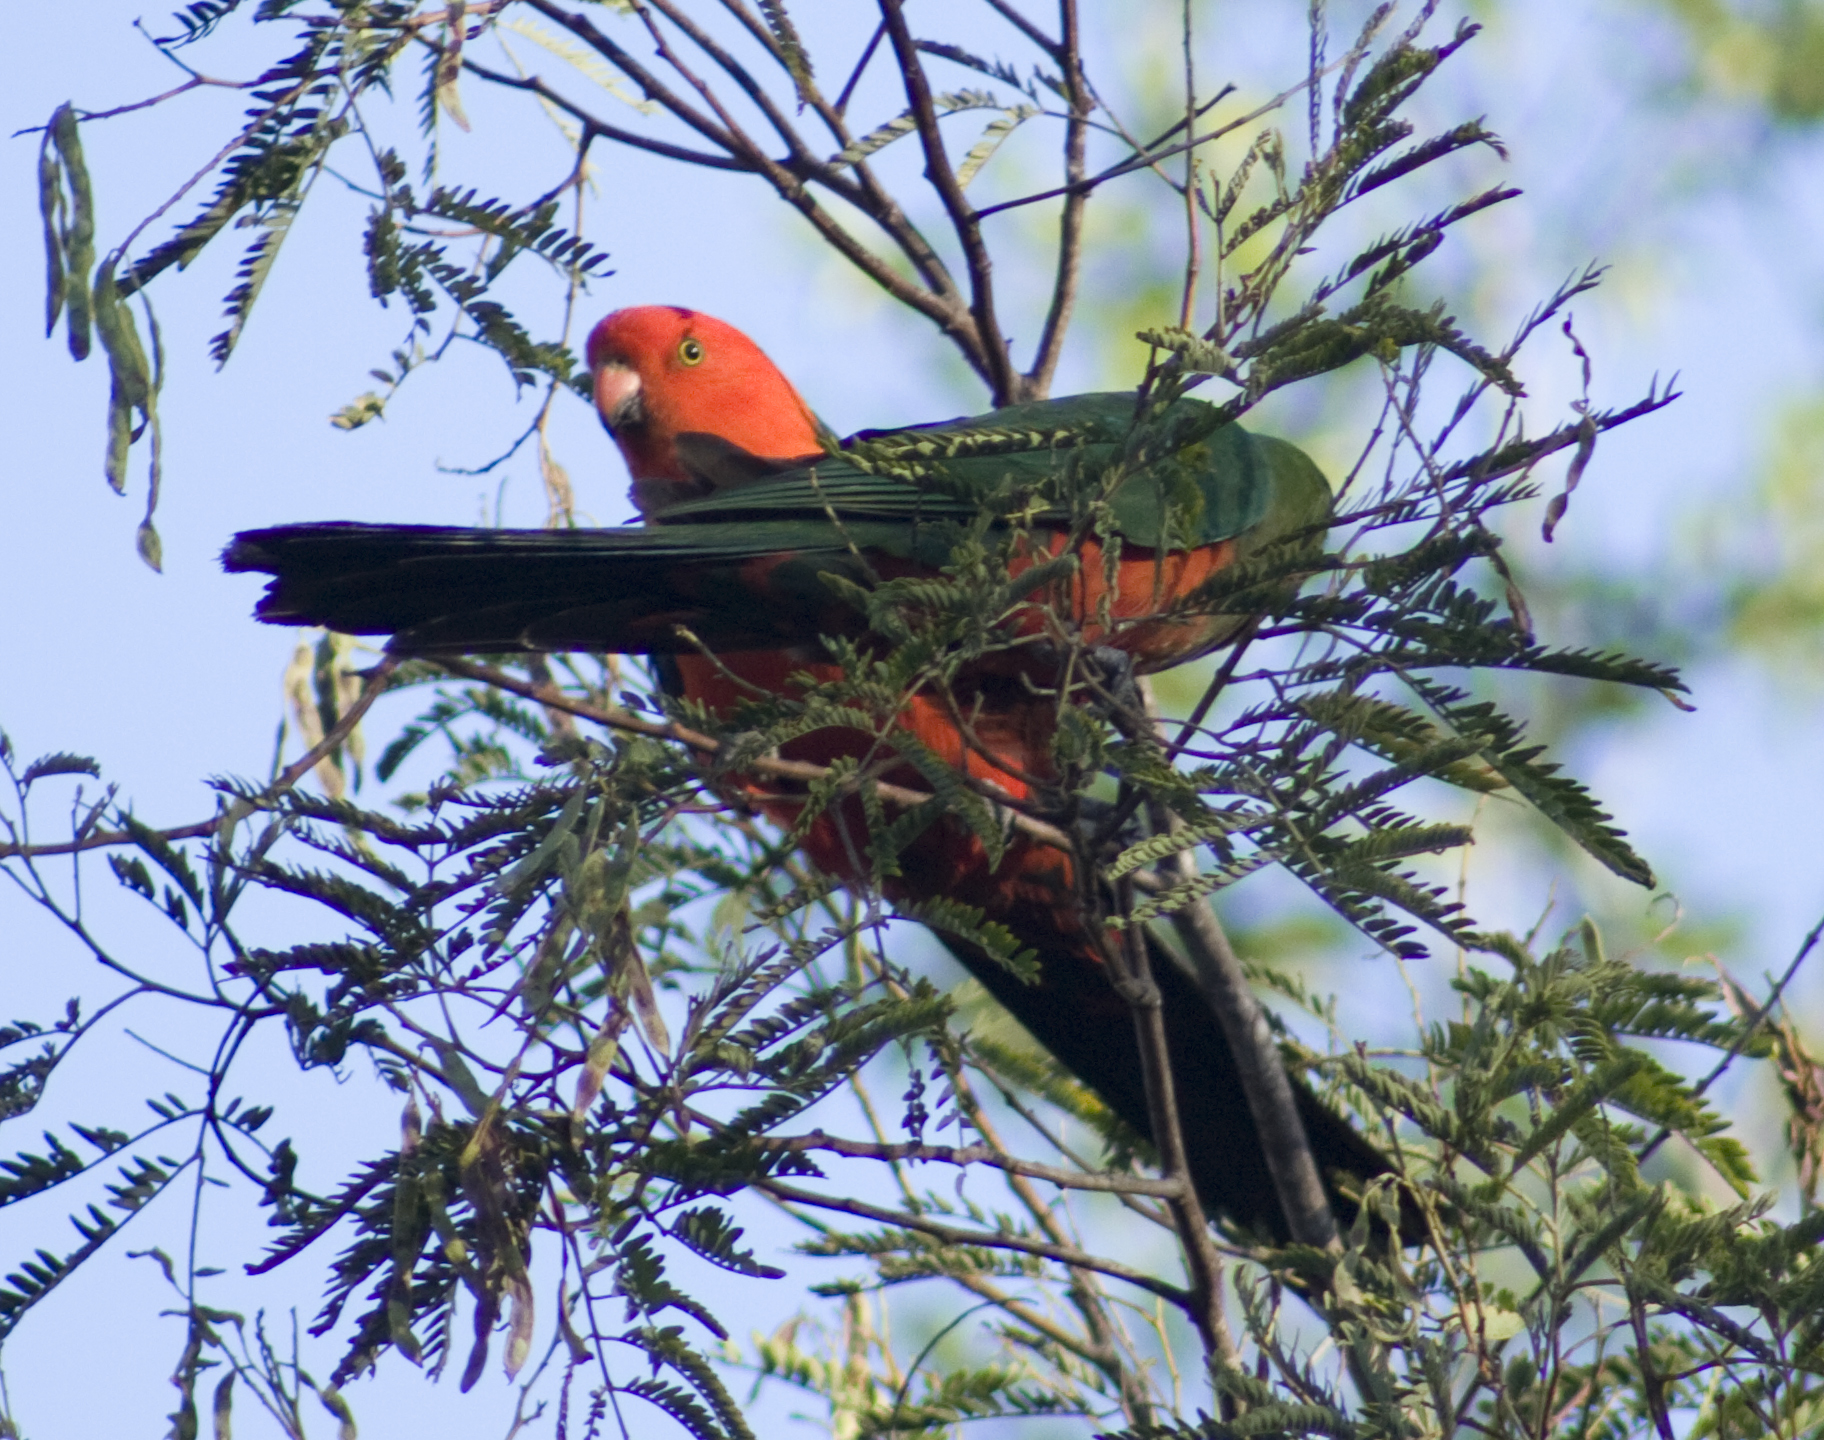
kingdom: Animalia
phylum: Chordata
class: Aves
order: Psittaciformes
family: Psittacidae
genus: Alisterus
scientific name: Alisterus scapularis
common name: Australian king parrot
